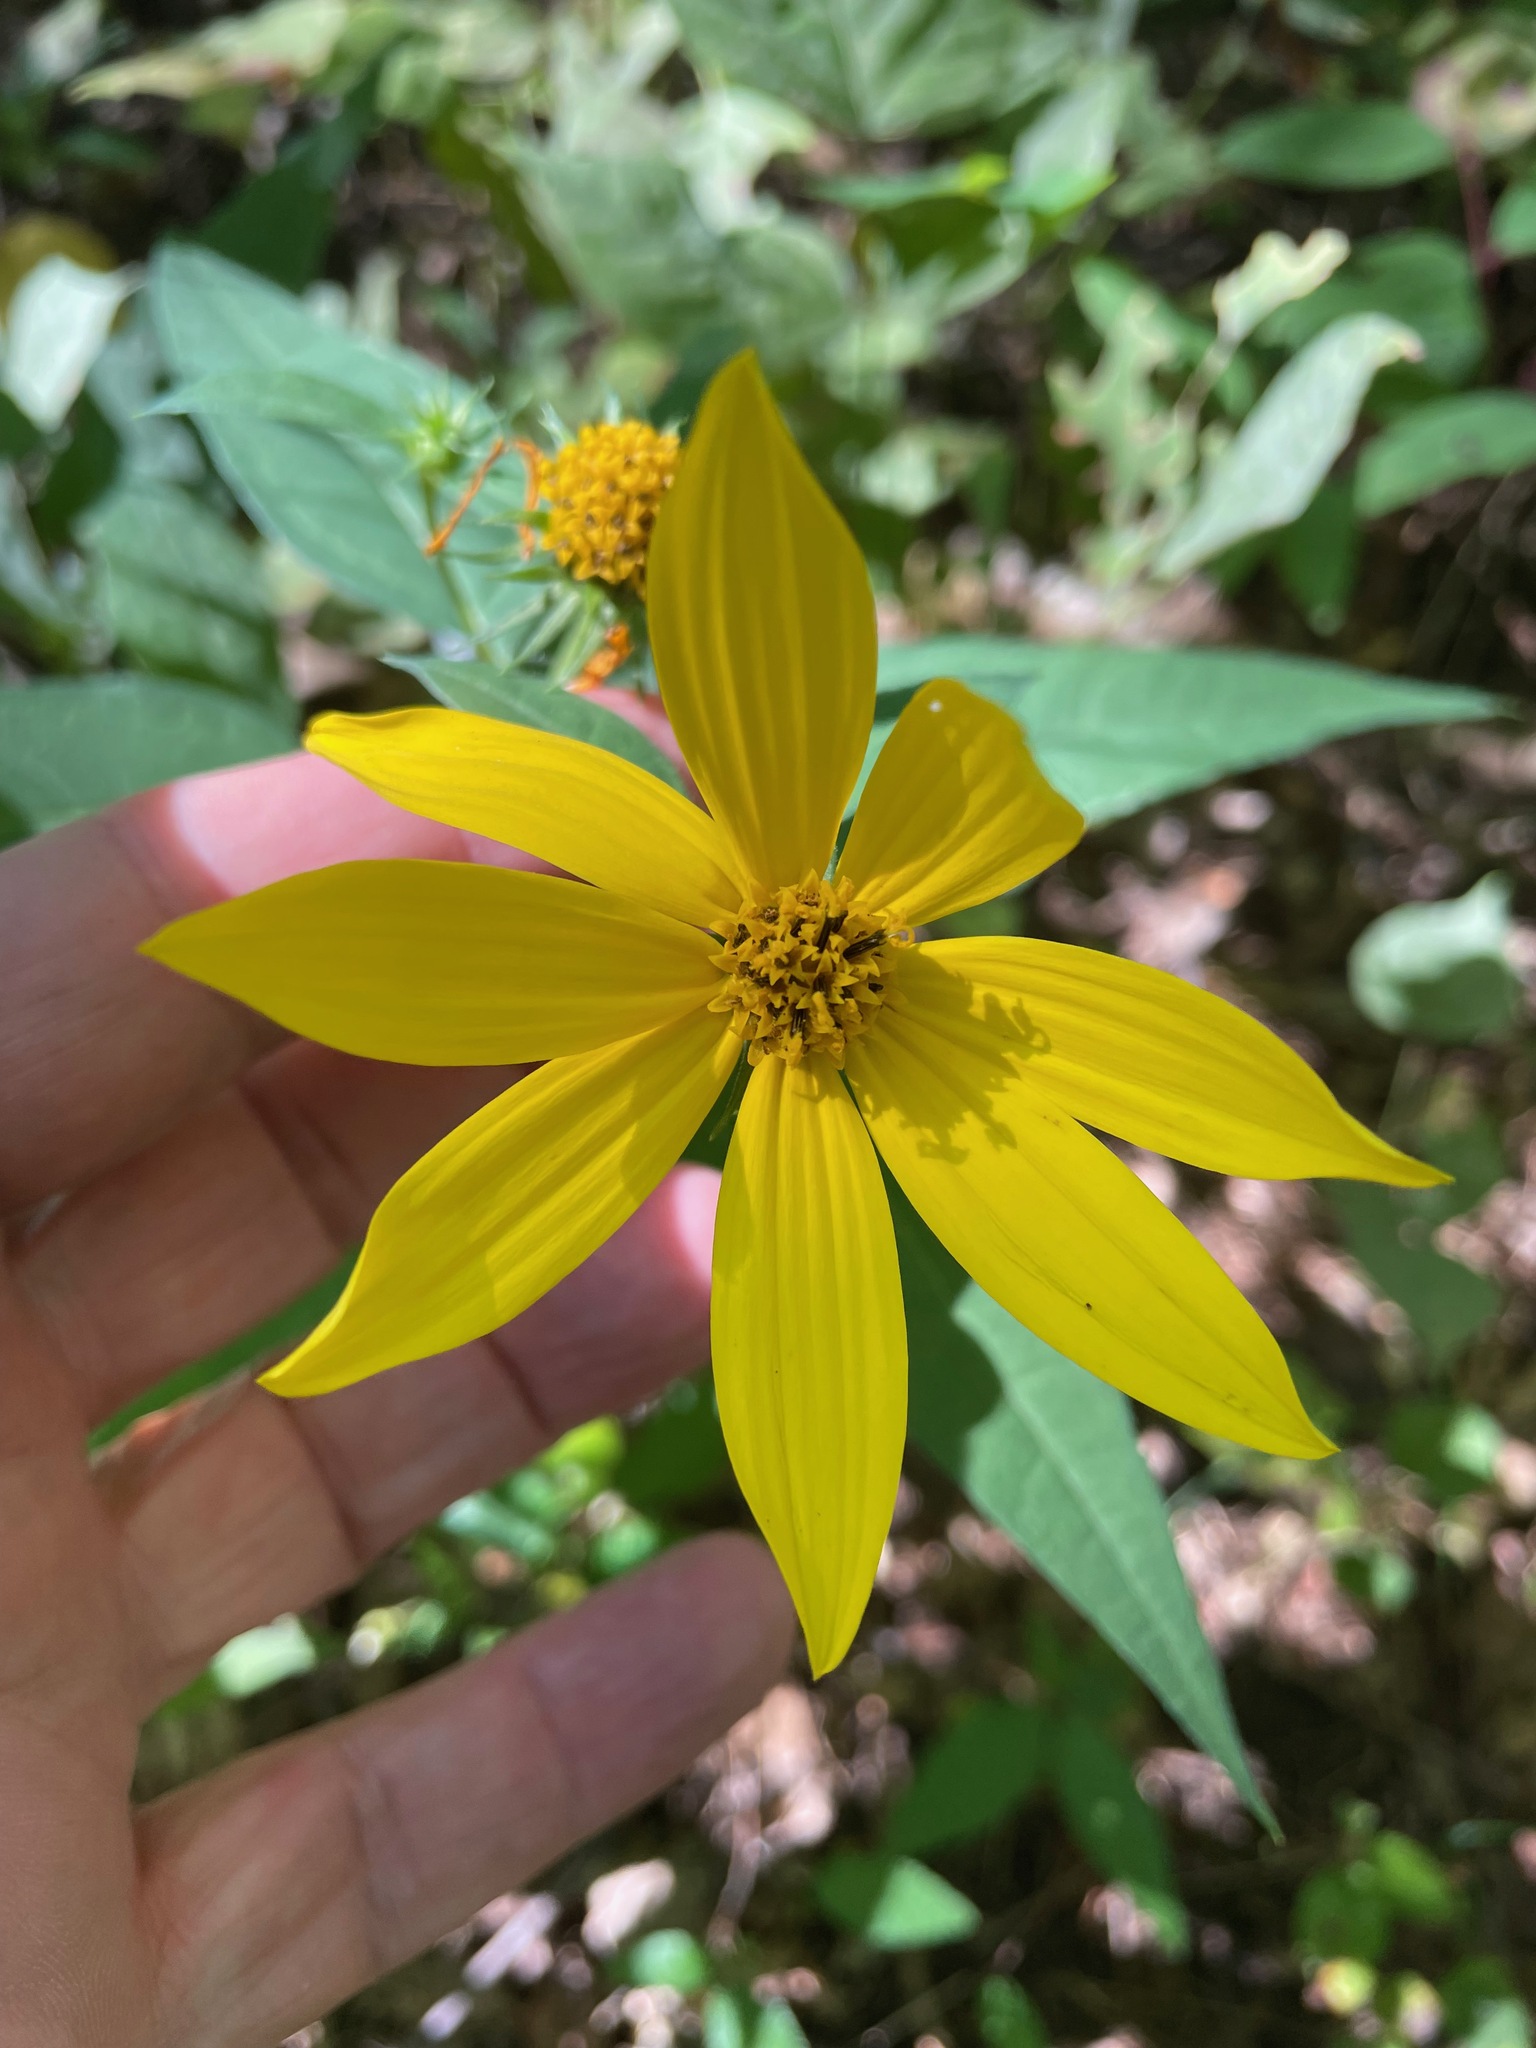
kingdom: Plantae
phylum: Tracheophyta
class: Magnoliopsida
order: Asterales
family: Asteraceae
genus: Helianthus
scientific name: Helianthus decapetalus
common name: Thin-leaved sunflower
